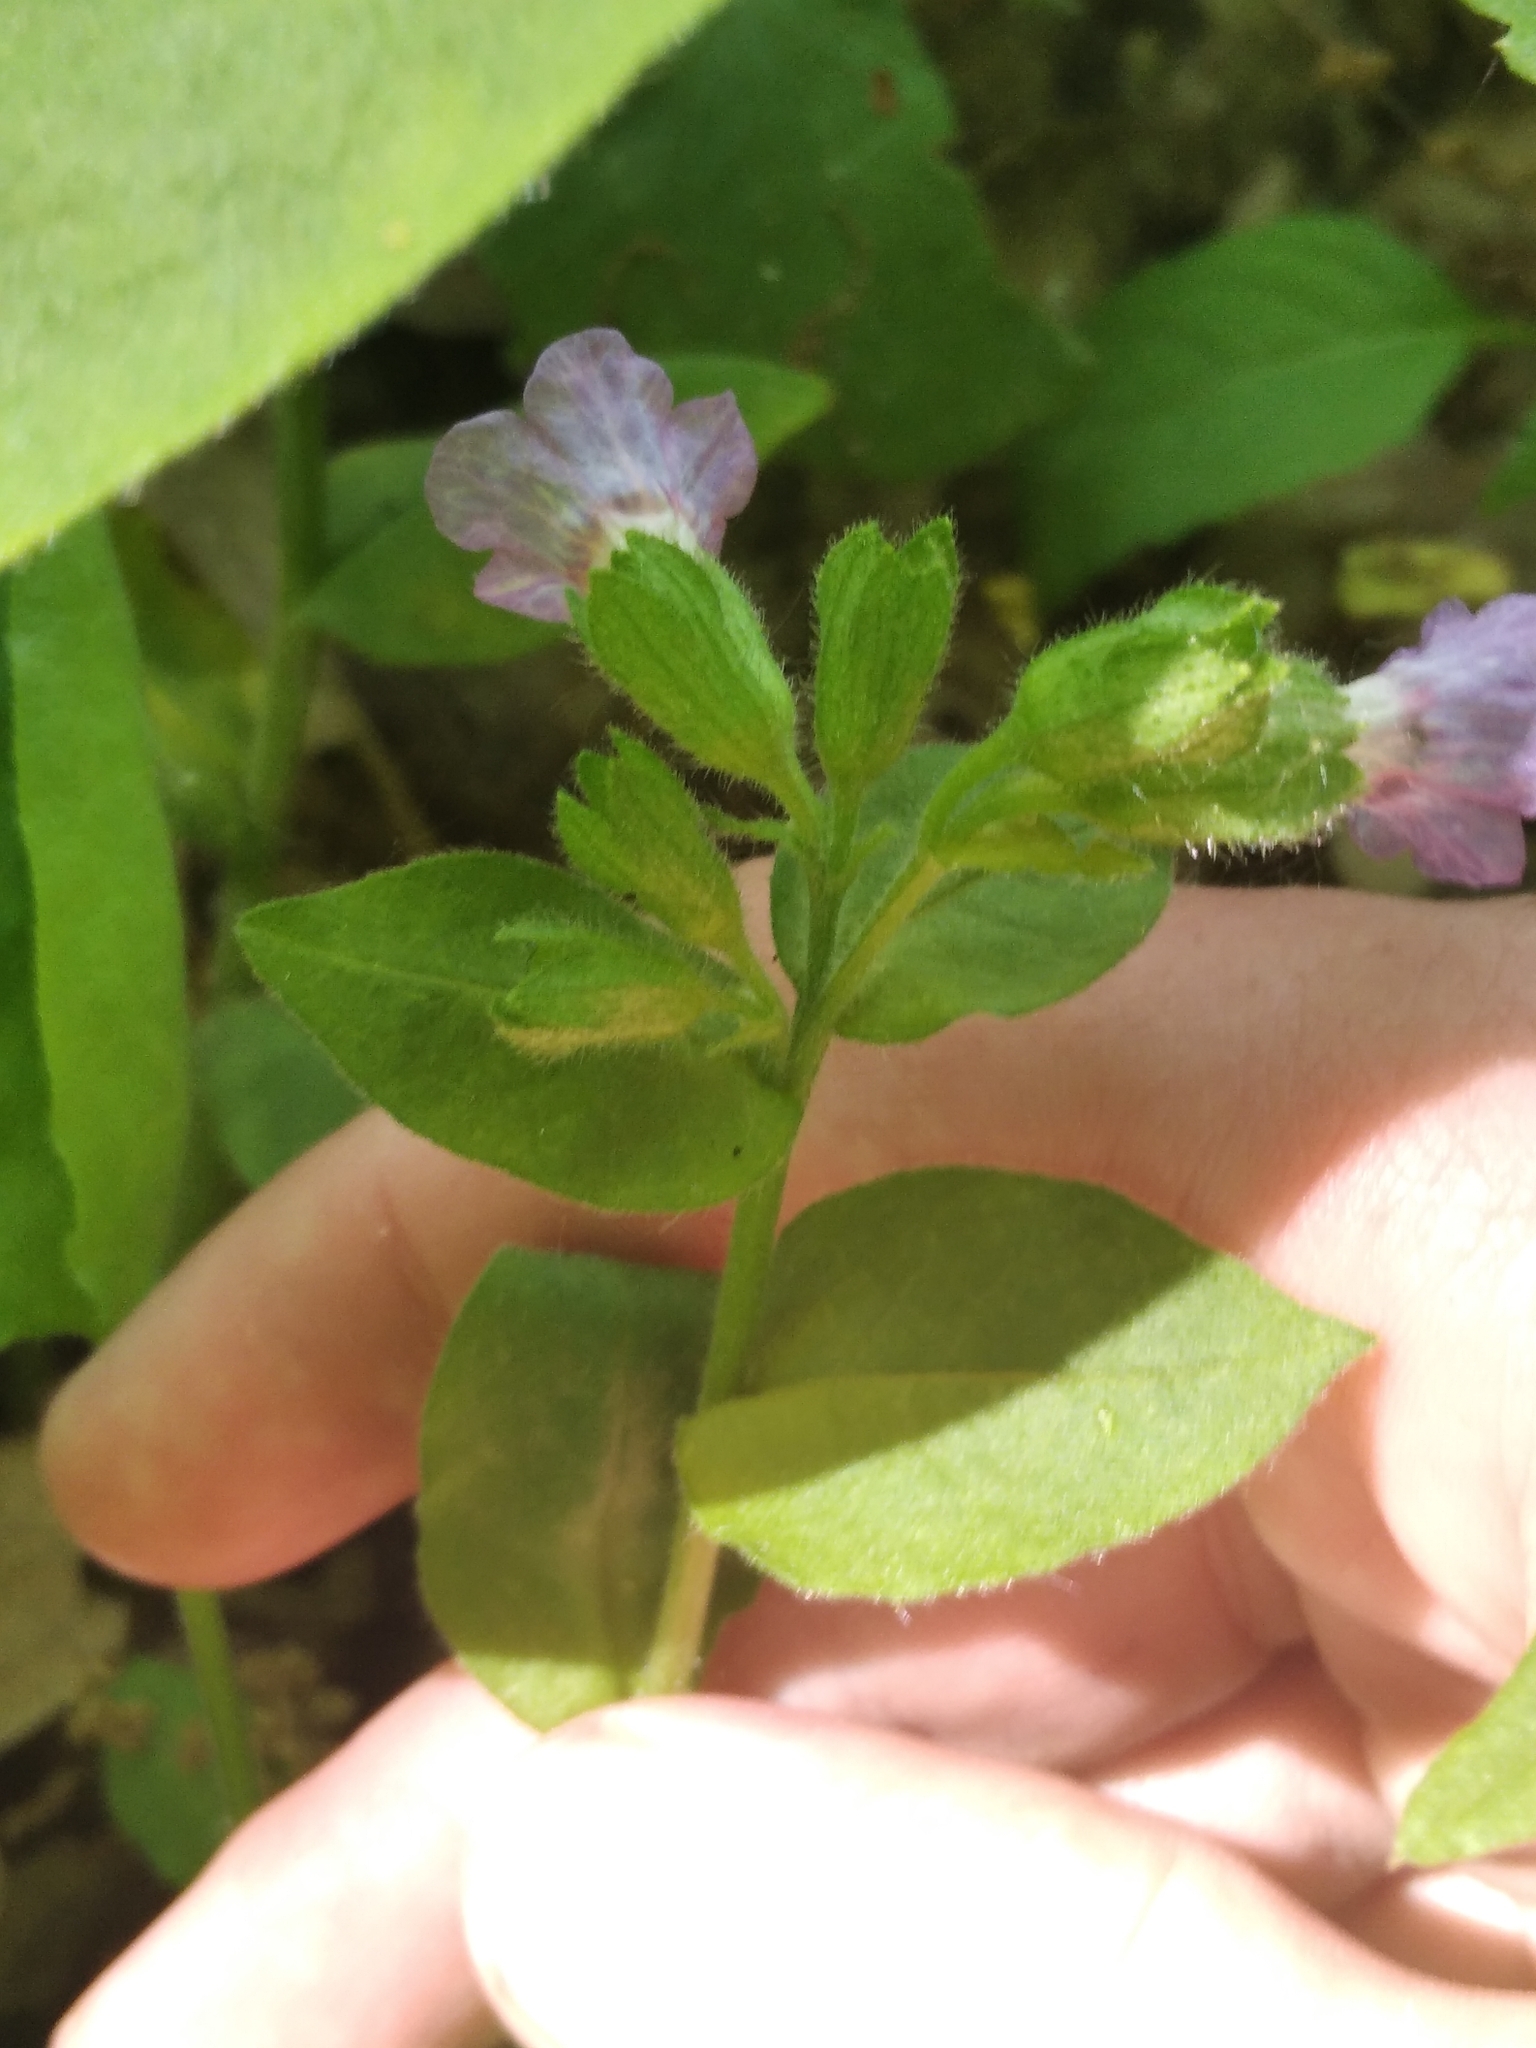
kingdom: Plantae
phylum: Tracheophyta
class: Magnoliopsida
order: Boraginales
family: Boraginaceae
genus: Pulmonaria
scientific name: Pulmonaria obscura
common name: Suffolk lungwort
